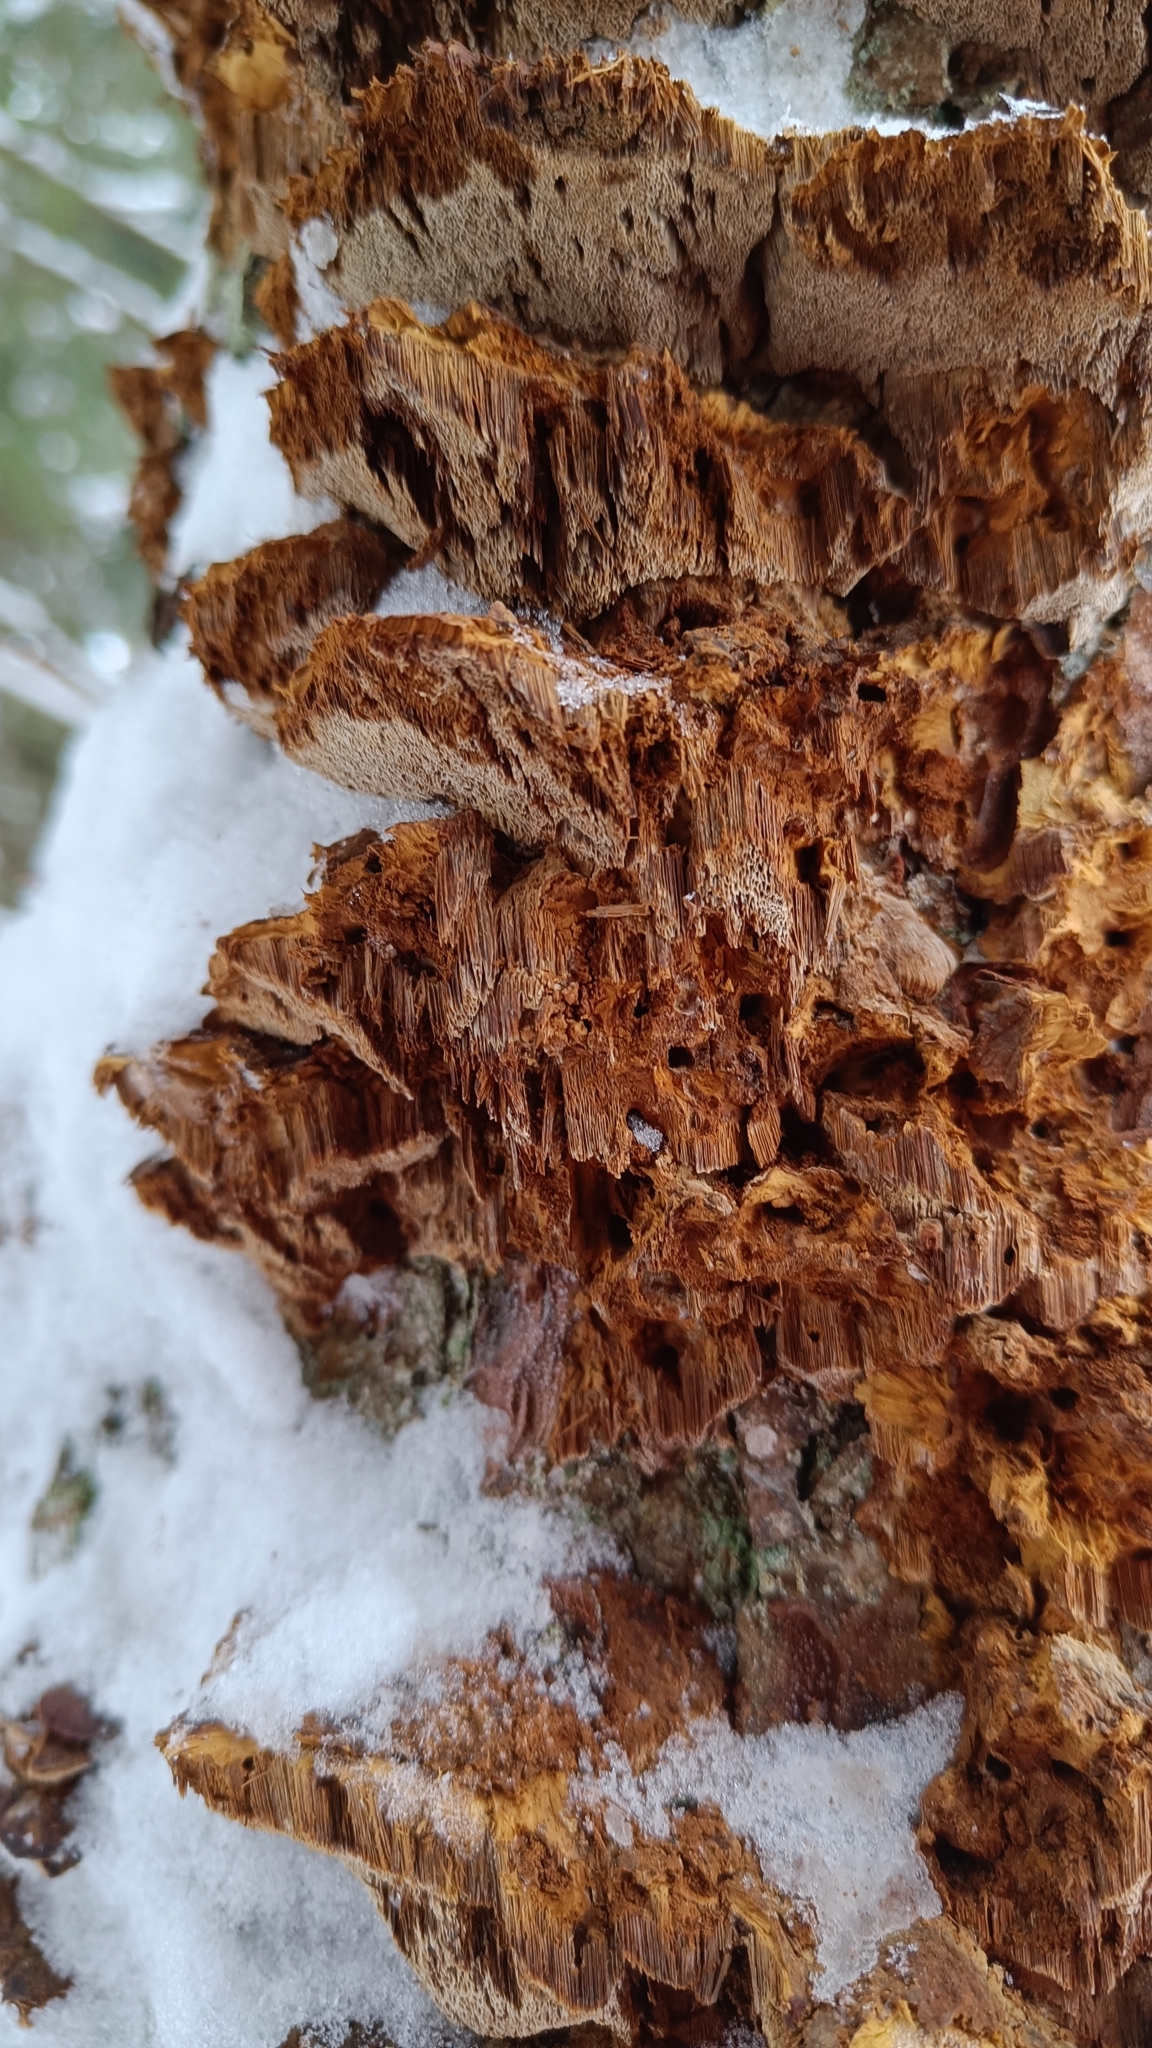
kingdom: Fungi
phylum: Basidiomycota
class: Agaricomycetes
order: Hymenochaetales
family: Hymenochaetaceae
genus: Xanthoporia
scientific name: Xanthoporia radiata
